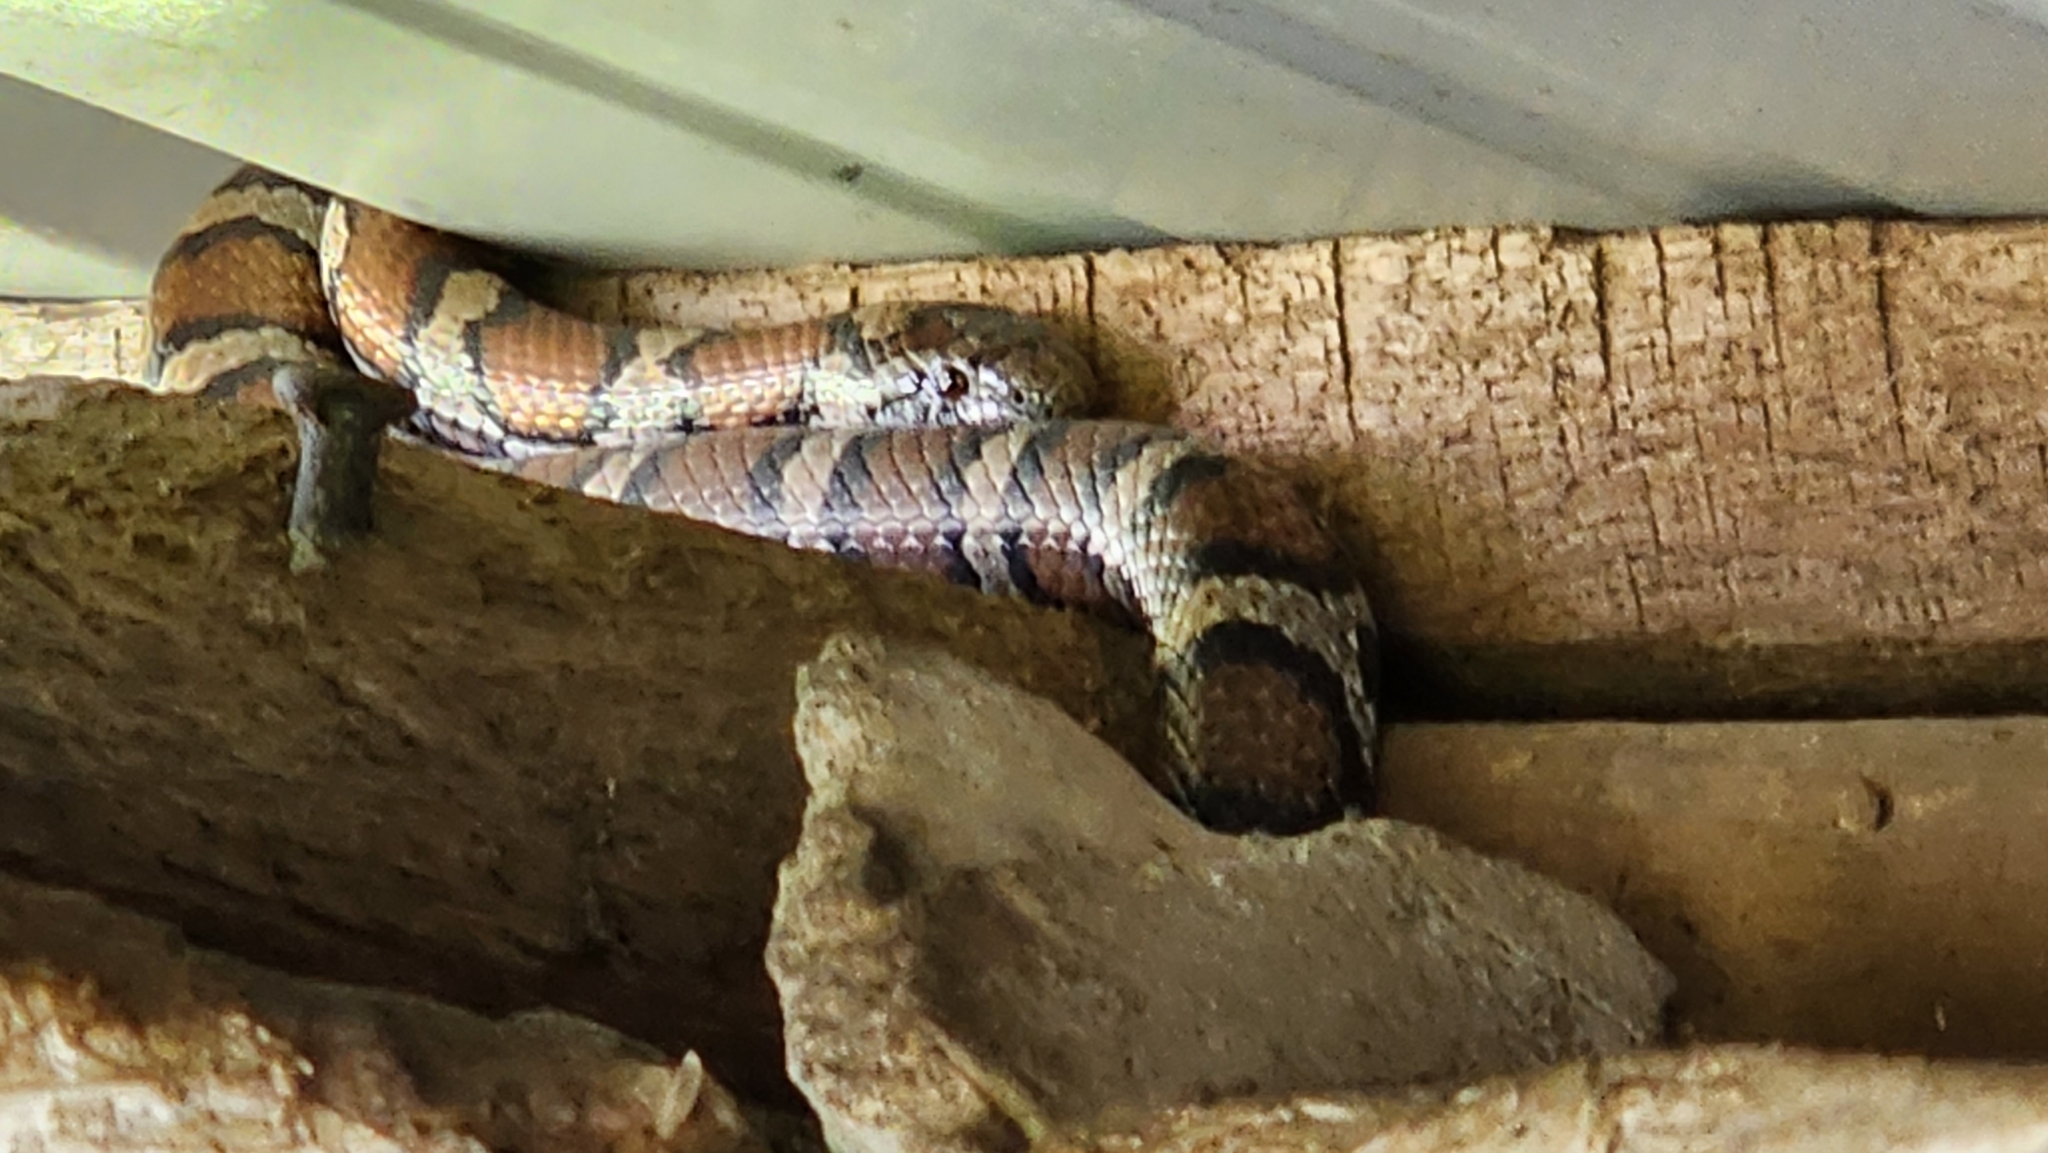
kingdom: Animalia
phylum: Chordata
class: Squamata
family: Colubridae
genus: Lampropeltis
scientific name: Lampropeltis triangulum
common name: Eastern milksnake
